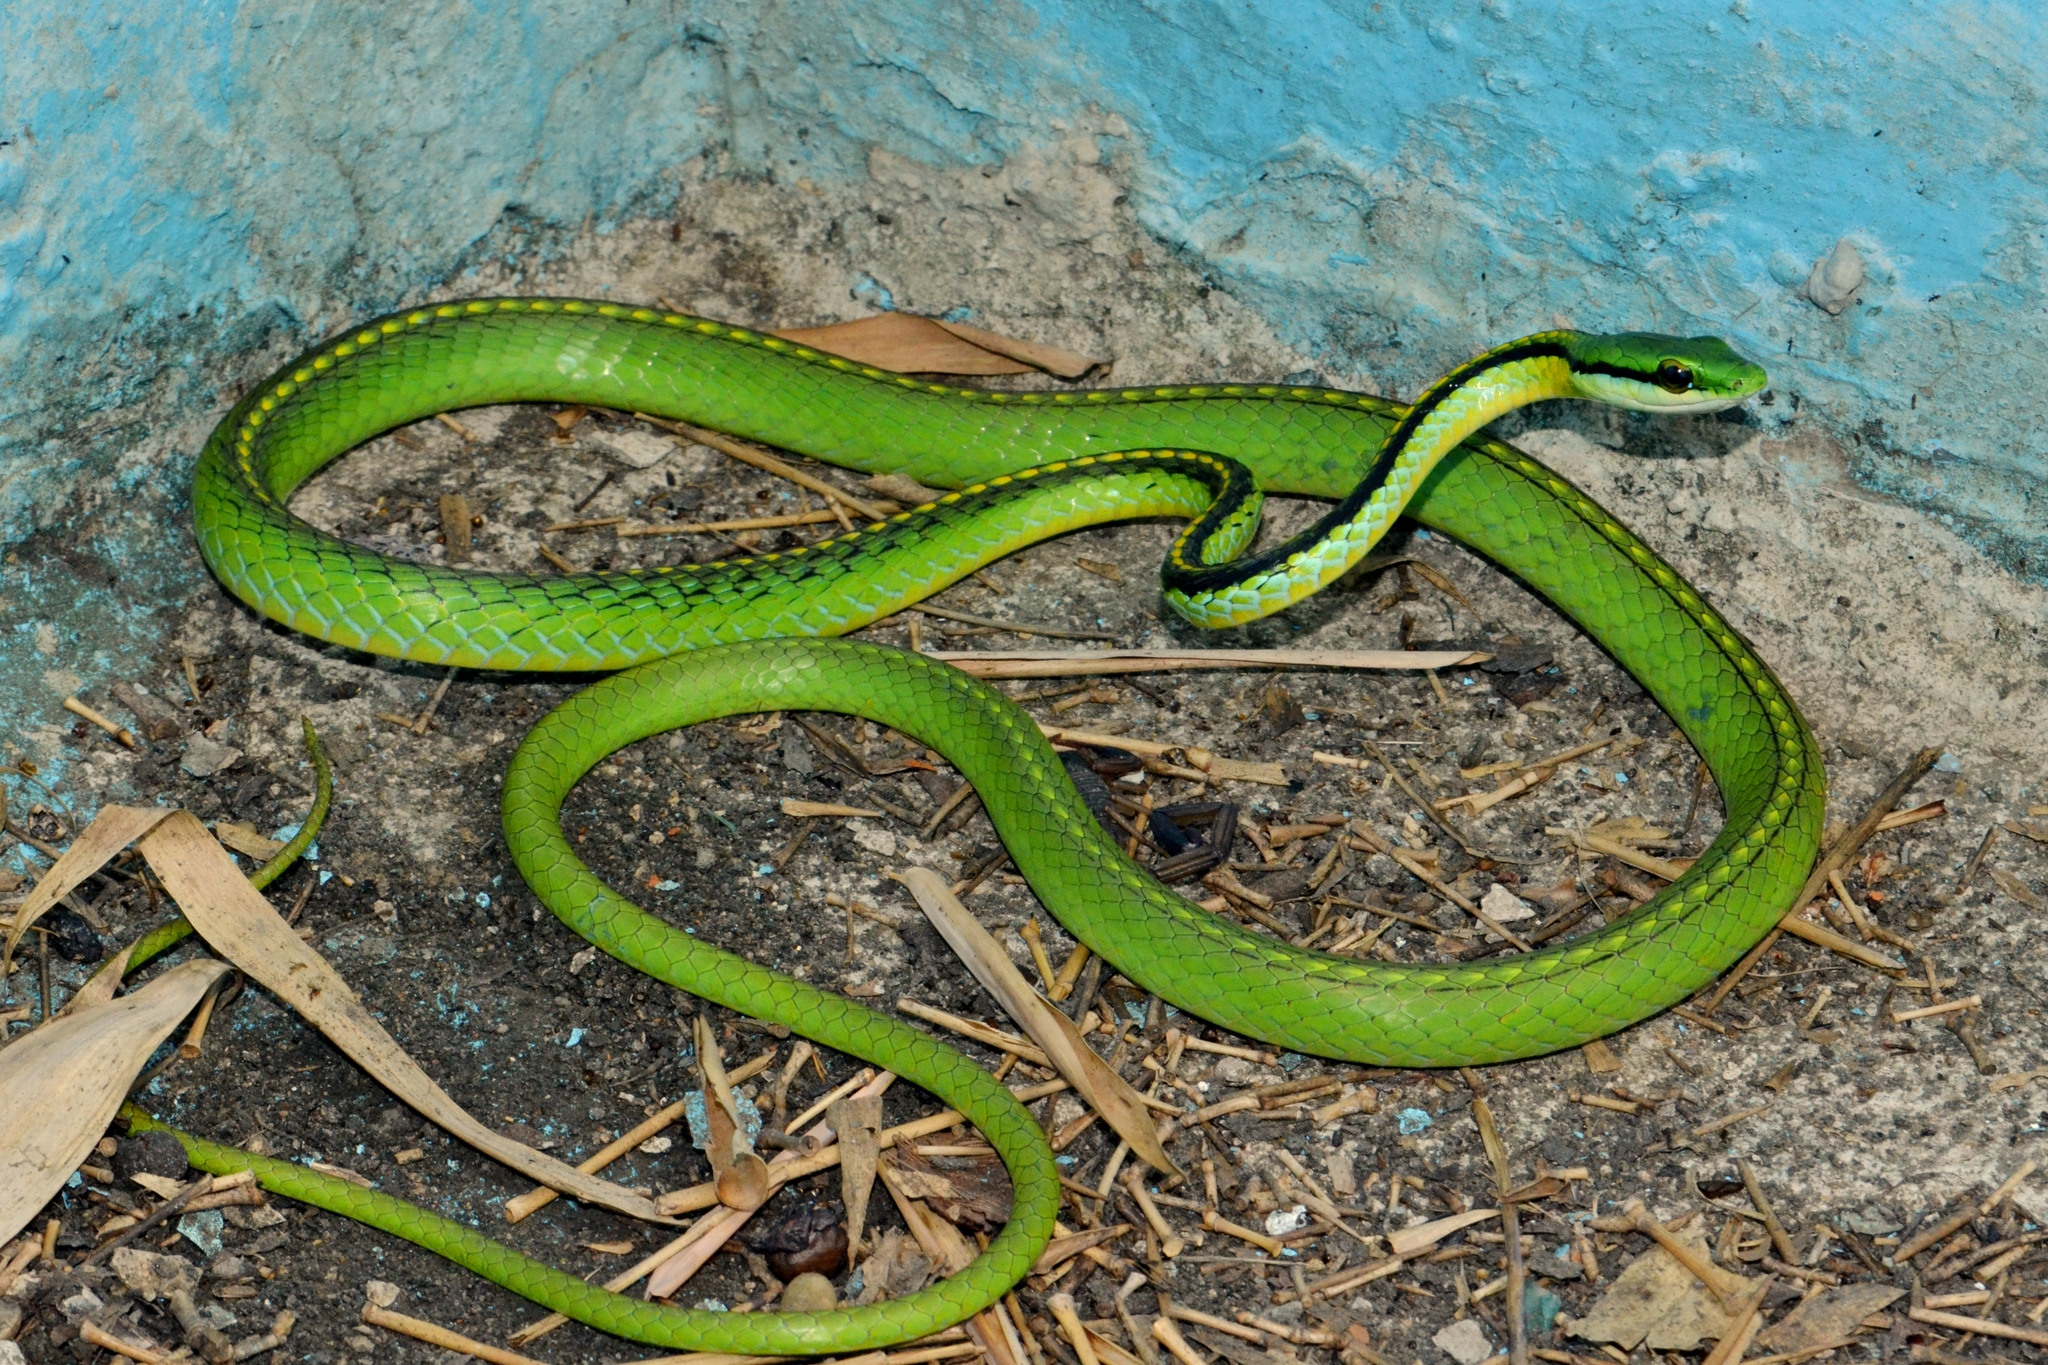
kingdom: Animalia
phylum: Chordata
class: Squamata
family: Colubridae
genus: Leptophis
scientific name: Leptophis diplotropis
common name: Pacific coast parrot snake
